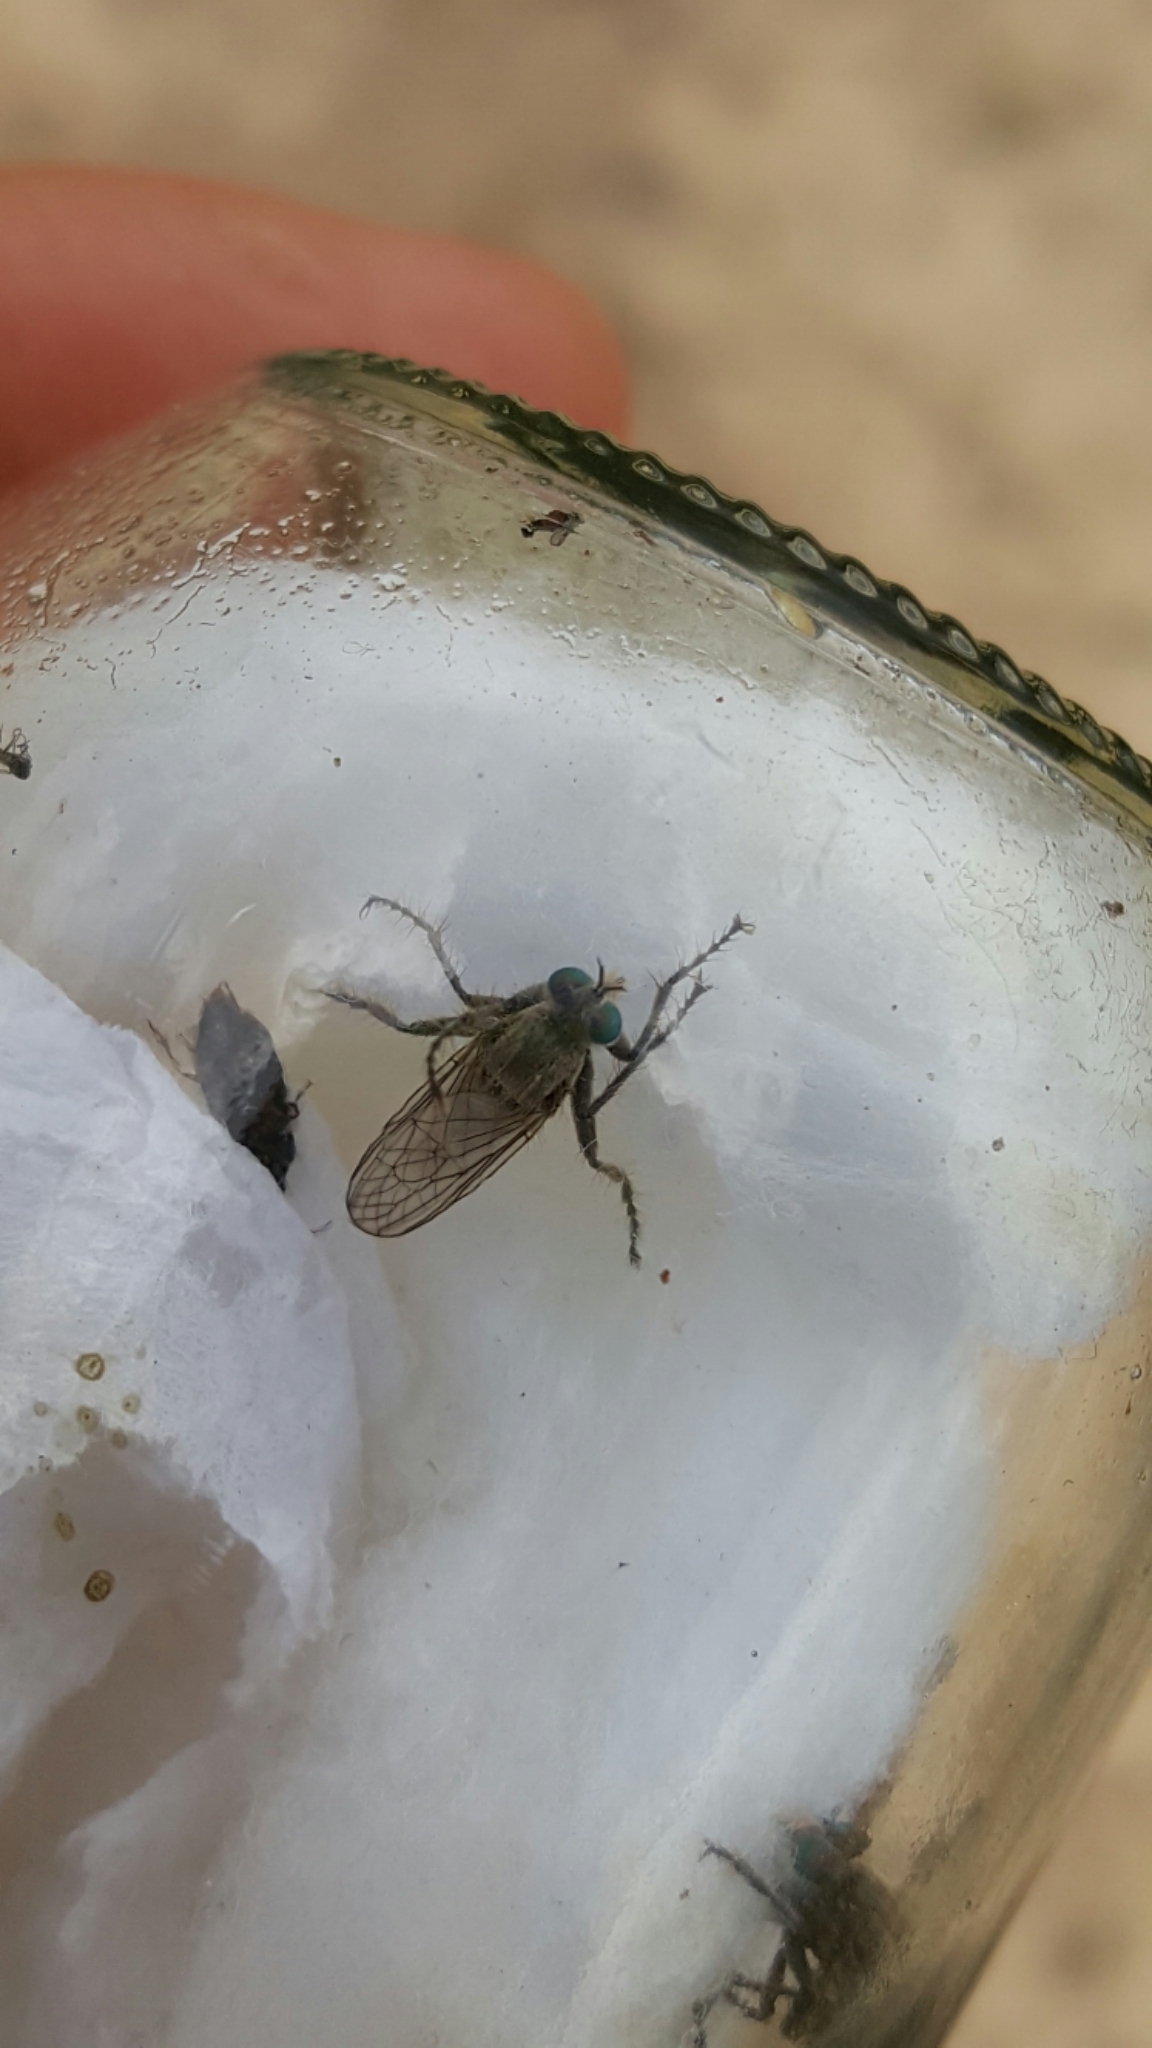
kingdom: Animalia
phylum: Arthropoda
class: Insecta
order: Diptera
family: Asilidae
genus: Lasiopogon
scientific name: Lasiopogon quadrivittatus
